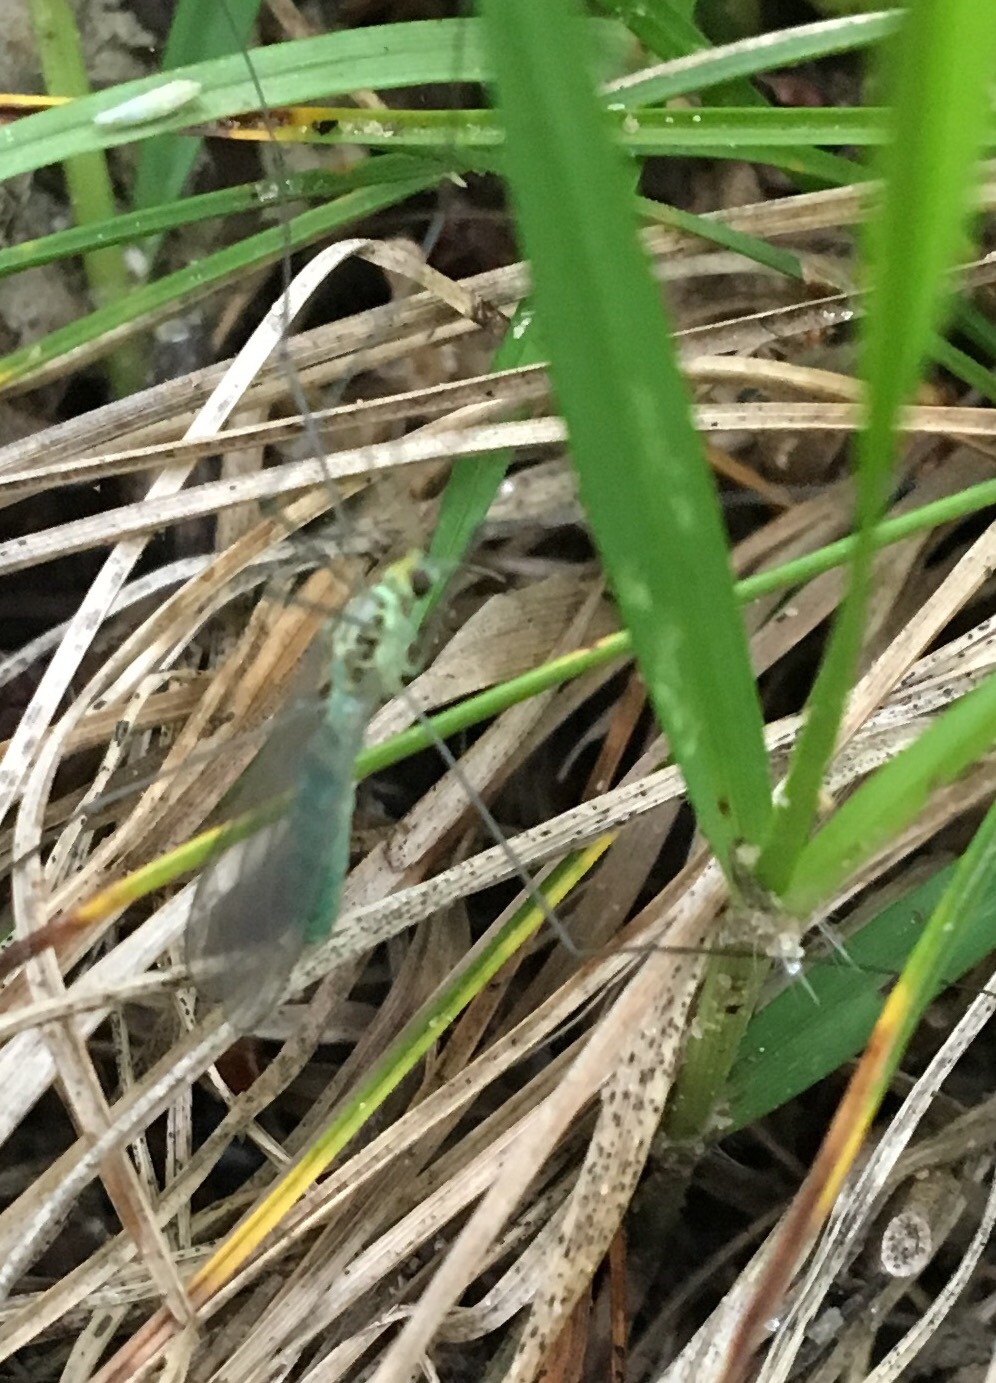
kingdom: Animalia
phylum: Arthropoda
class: Insecta
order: Diptera
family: Tipulidae
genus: Nephrotoma
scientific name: Nephrotoma virescens
